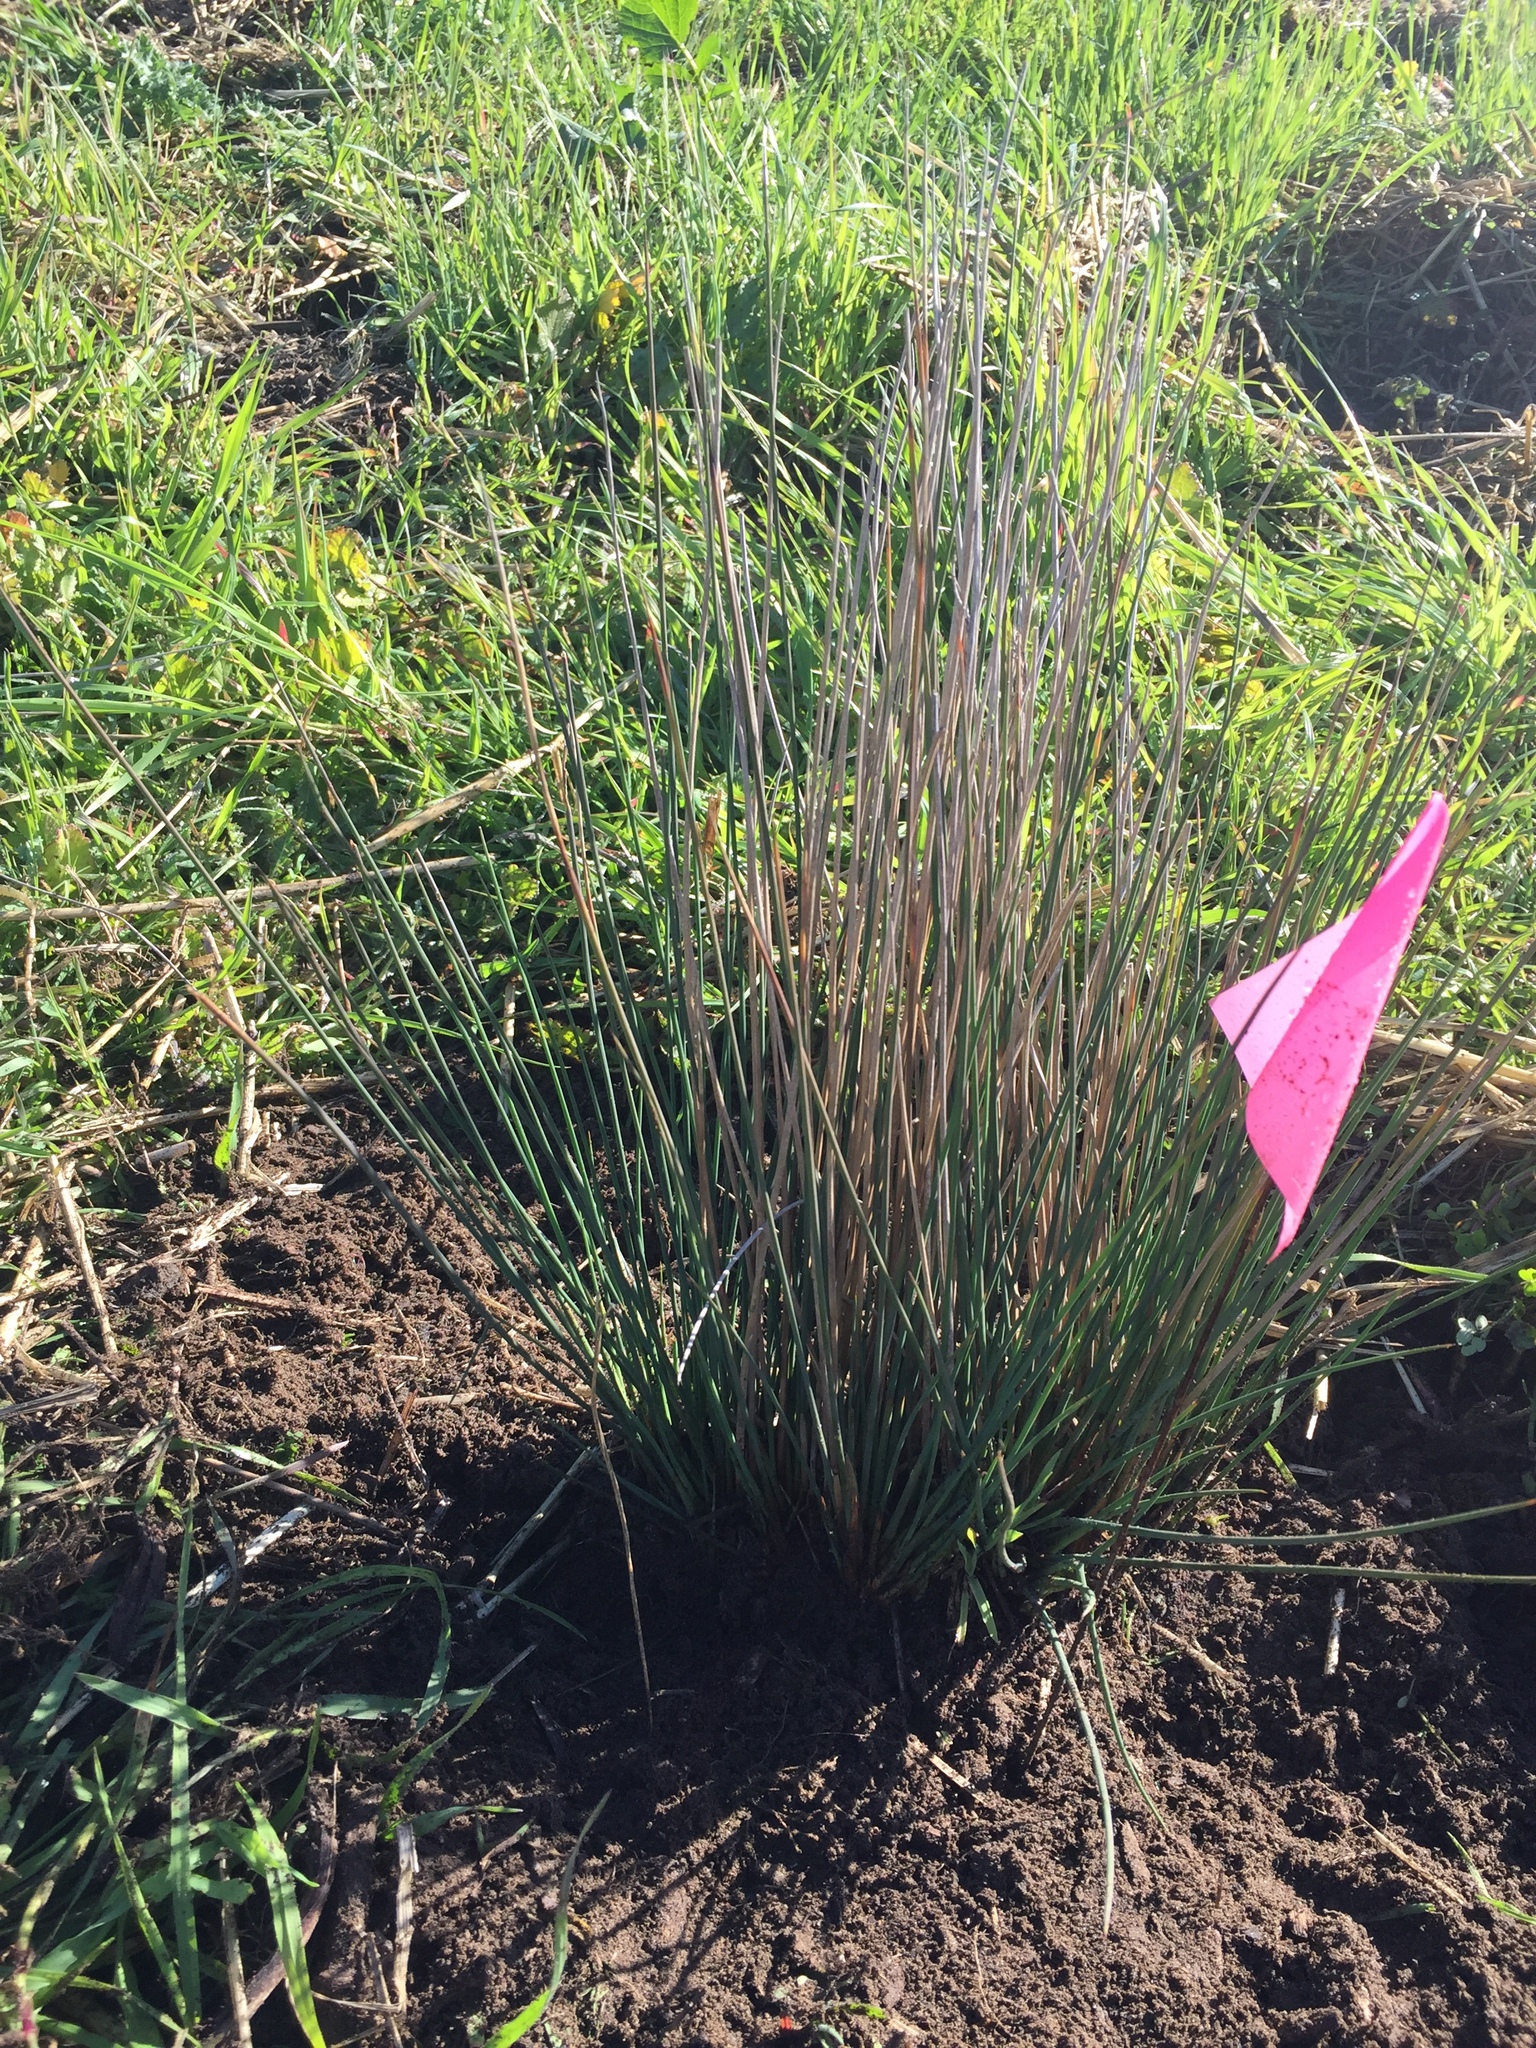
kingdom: Plantae
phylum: Tracheophyta
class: Liliopsida
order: Poales
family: Juncaceae
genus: Juncus
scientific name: Juncus patens
